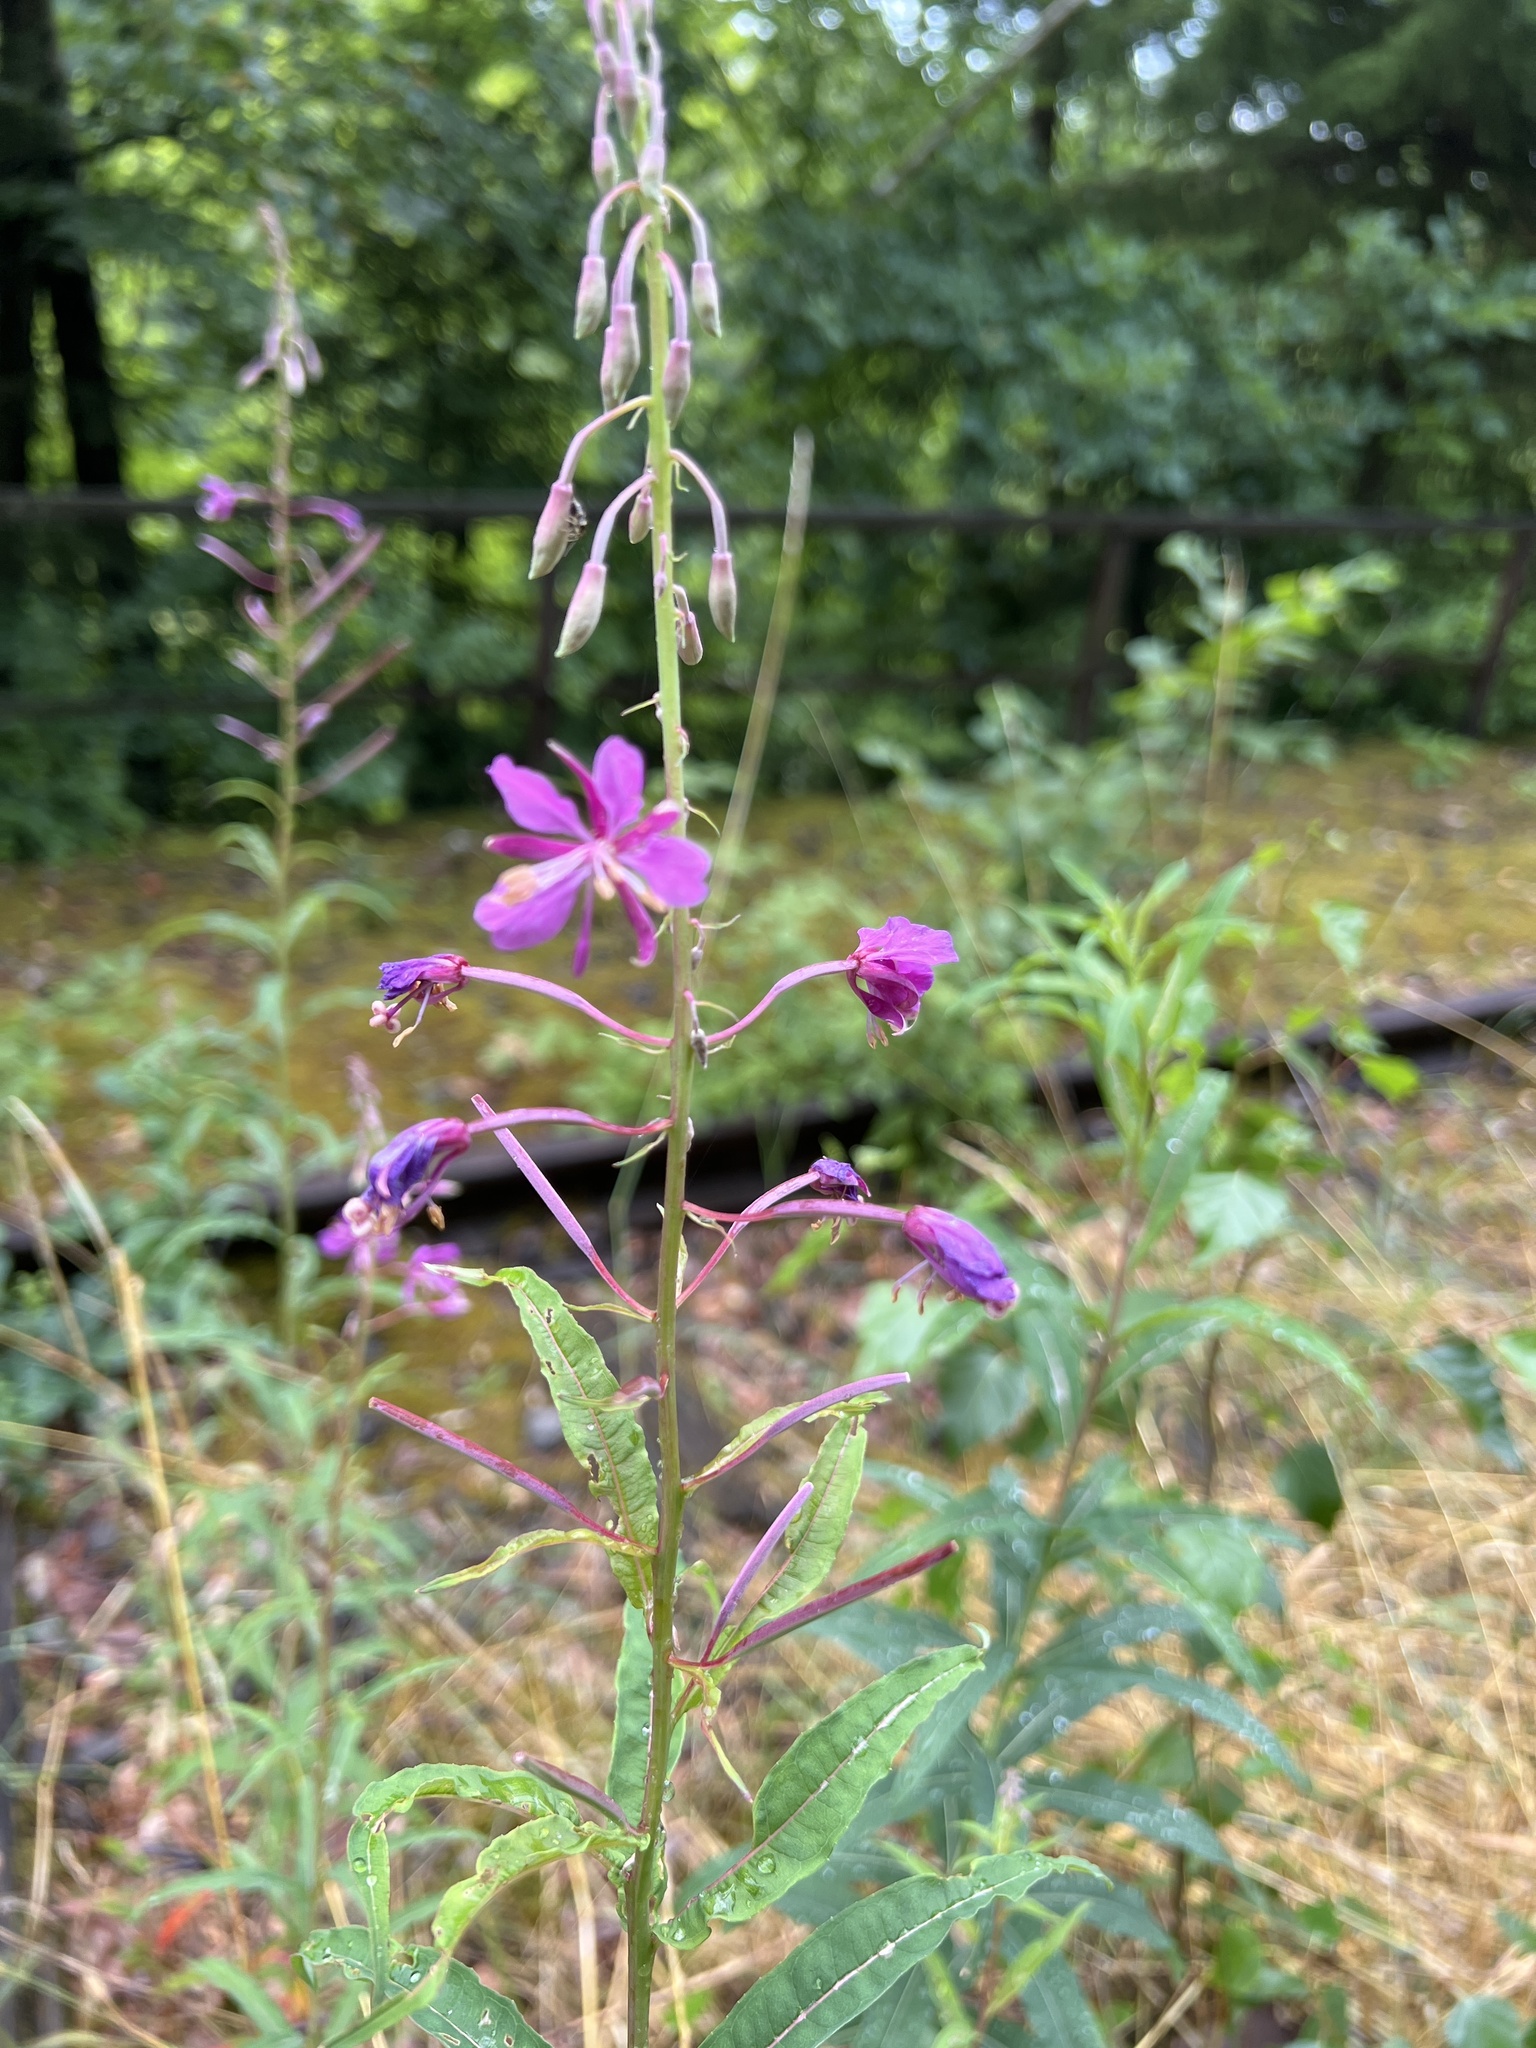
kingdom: Plantae
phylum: Tracheophyta
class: Magnoliopsida
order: Myrtales
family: Onagraceae
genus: Chamaenerion
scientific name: Chamaenerion angustifolium
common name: Fireweed
